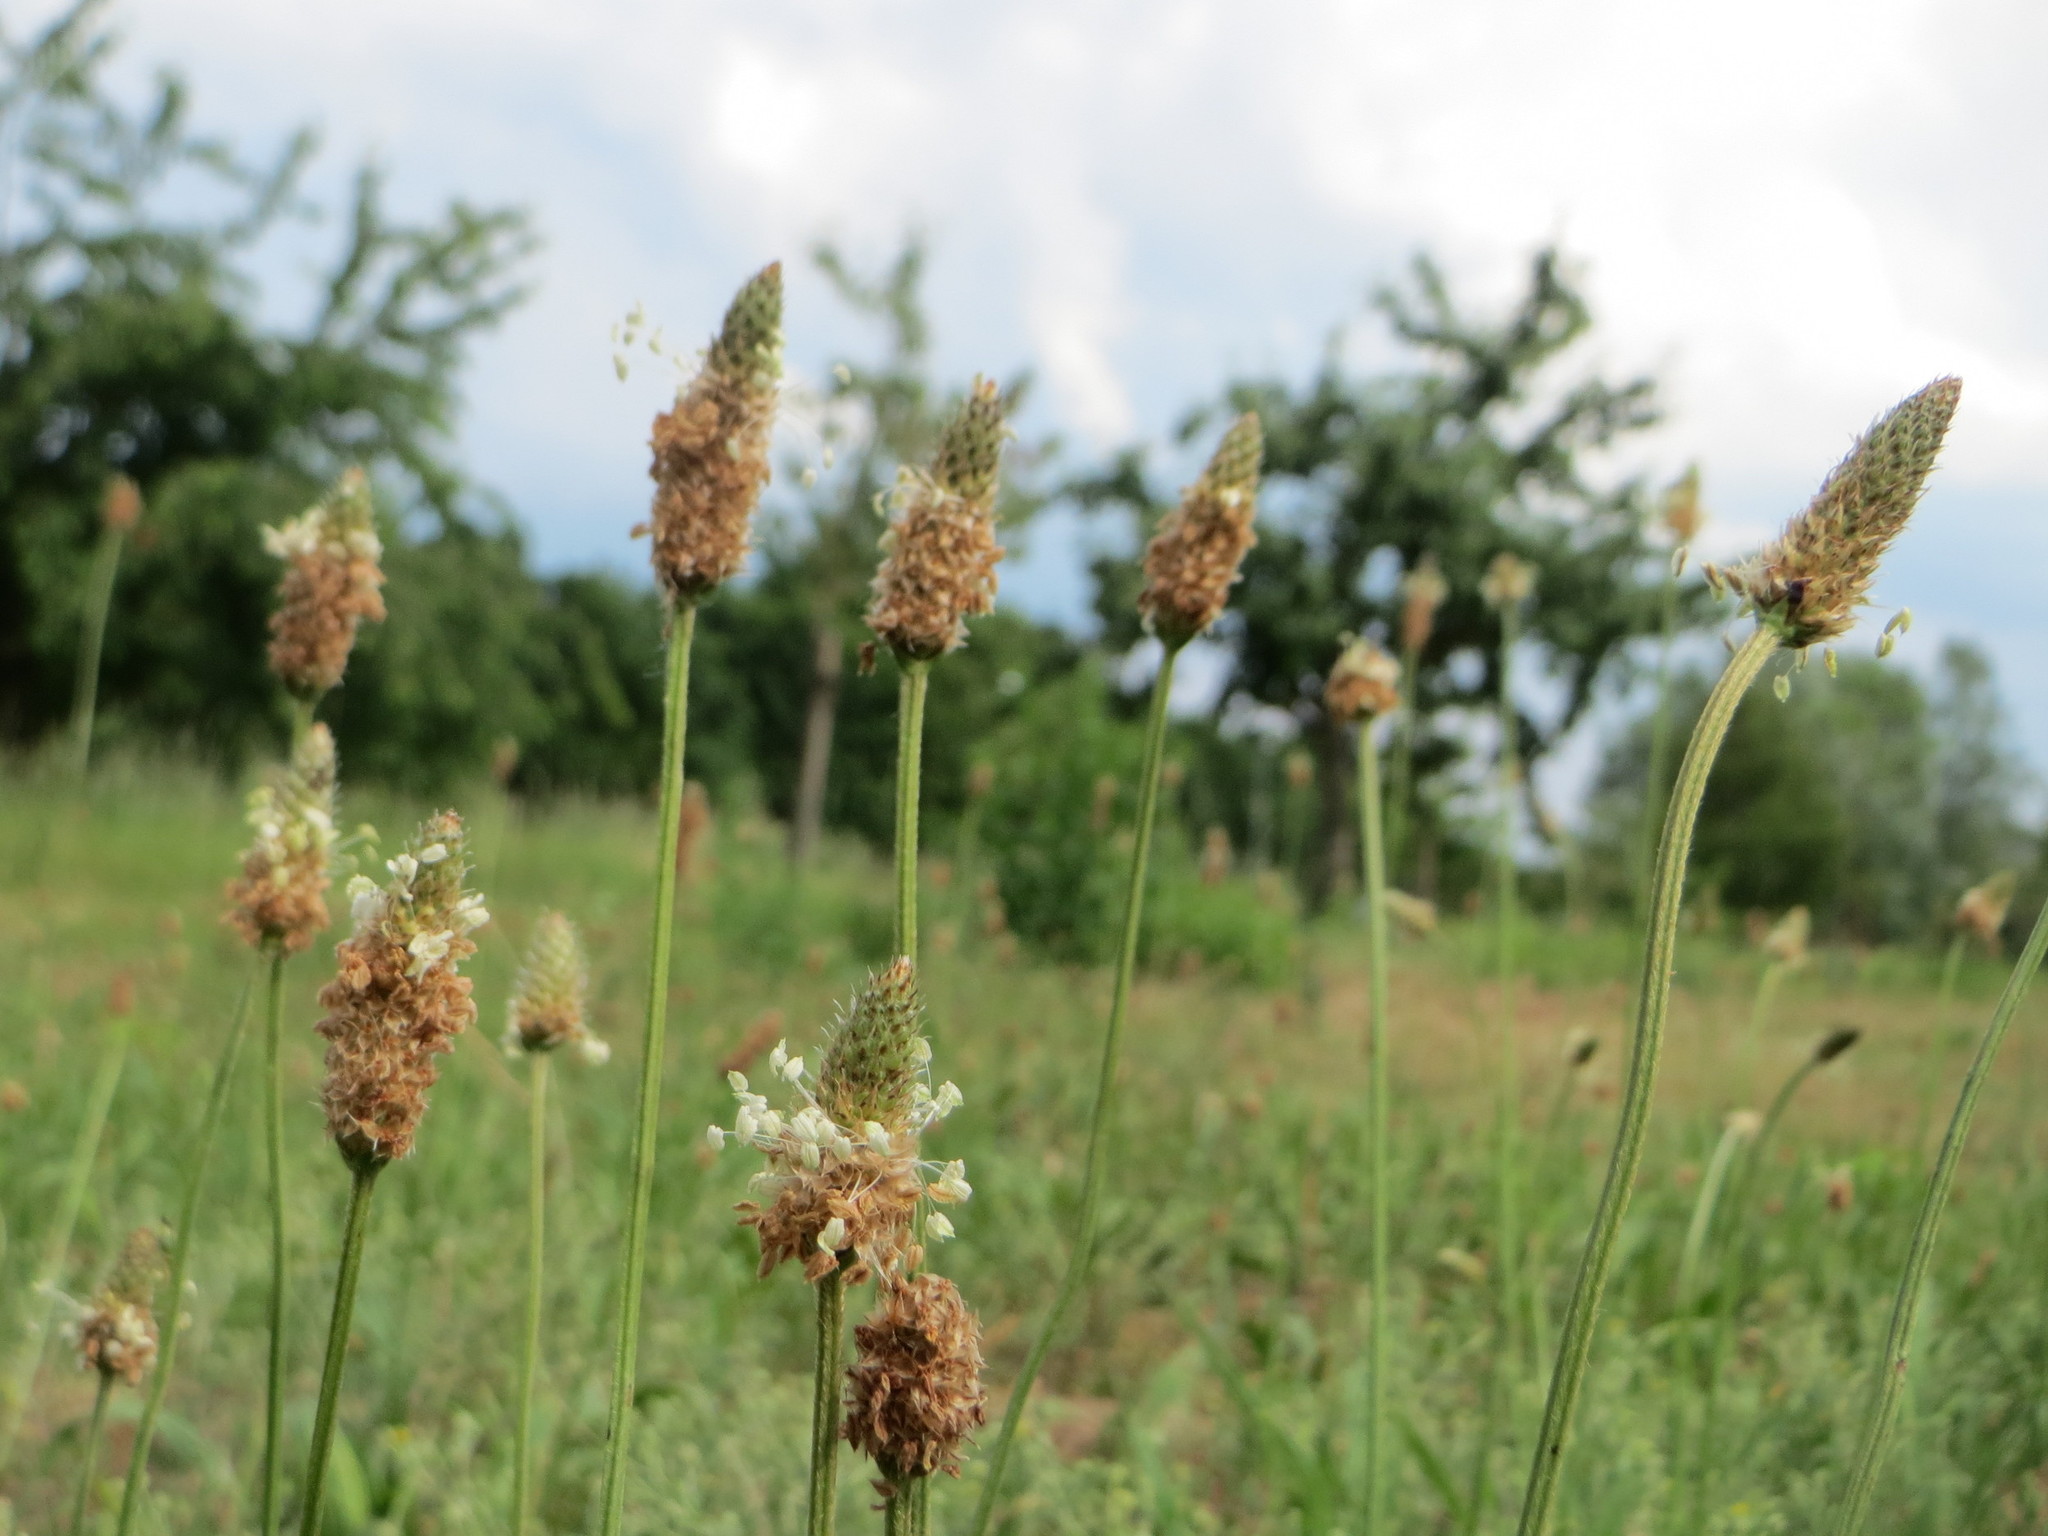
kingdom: Plantae
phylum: Tracheophyta
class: Magnoliopsida
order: Lamiales
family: Plantaginaceae
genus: Plantago
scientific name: Plantago lanceolata
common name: Ribwort plantain
